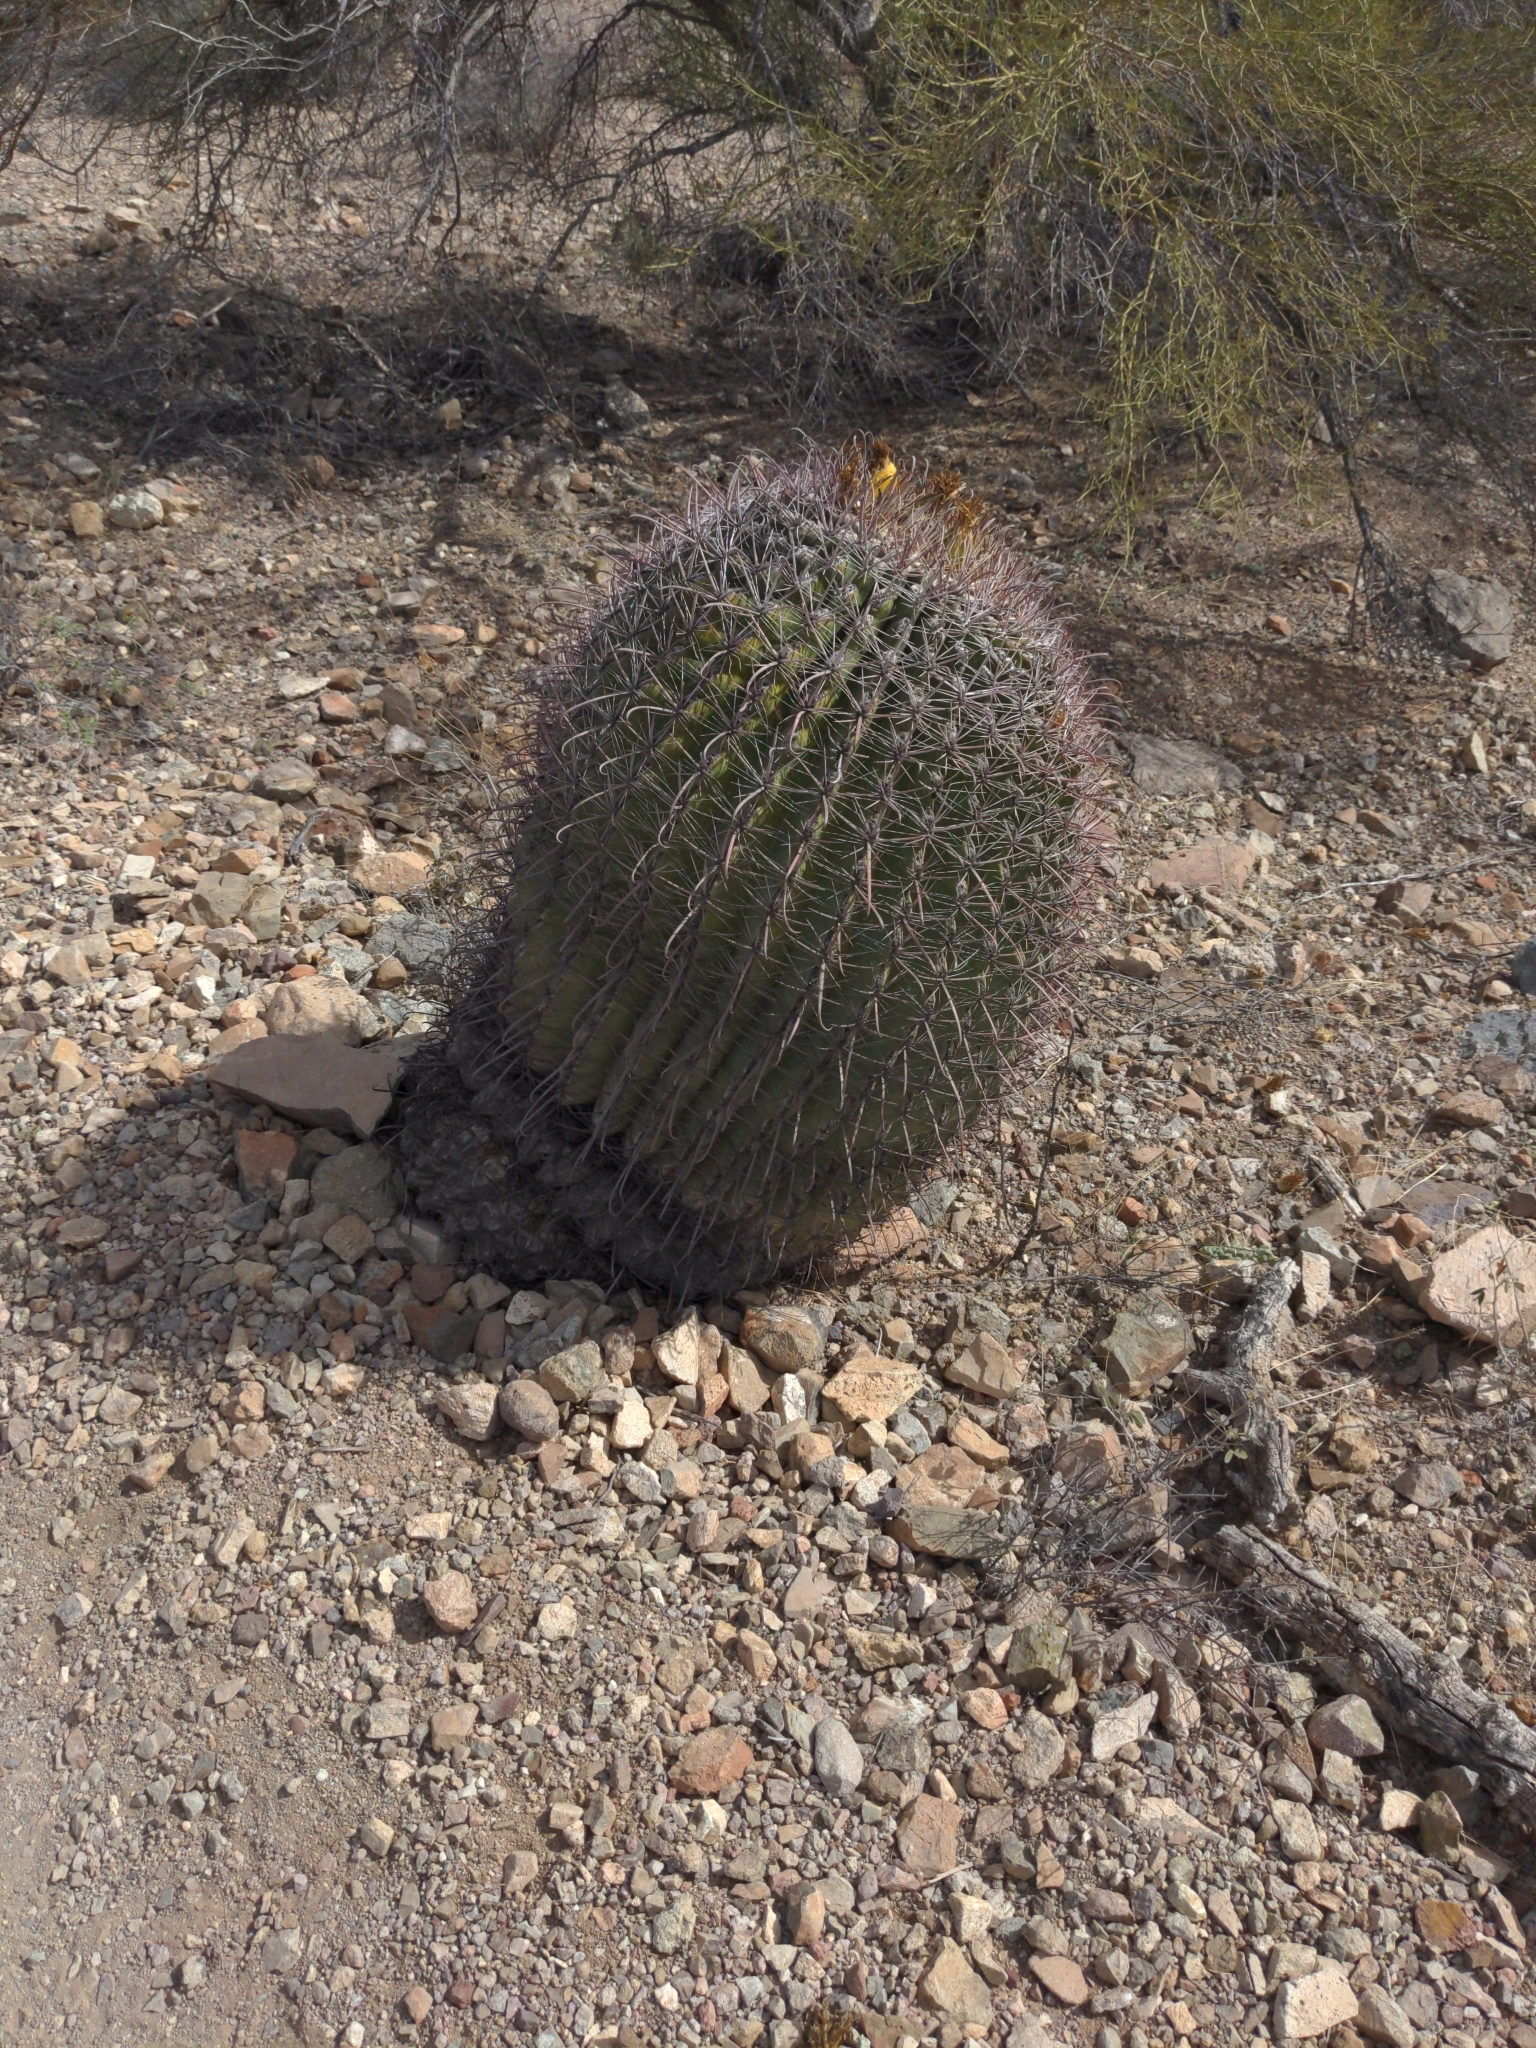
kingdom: Plantae
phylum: Tracheophyta
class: Magnoliopsida
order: Caryophyllales
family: Cactaceae
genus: Ferocactus
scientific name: Ferocactus wislizeni
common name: Candy barrel cactus
